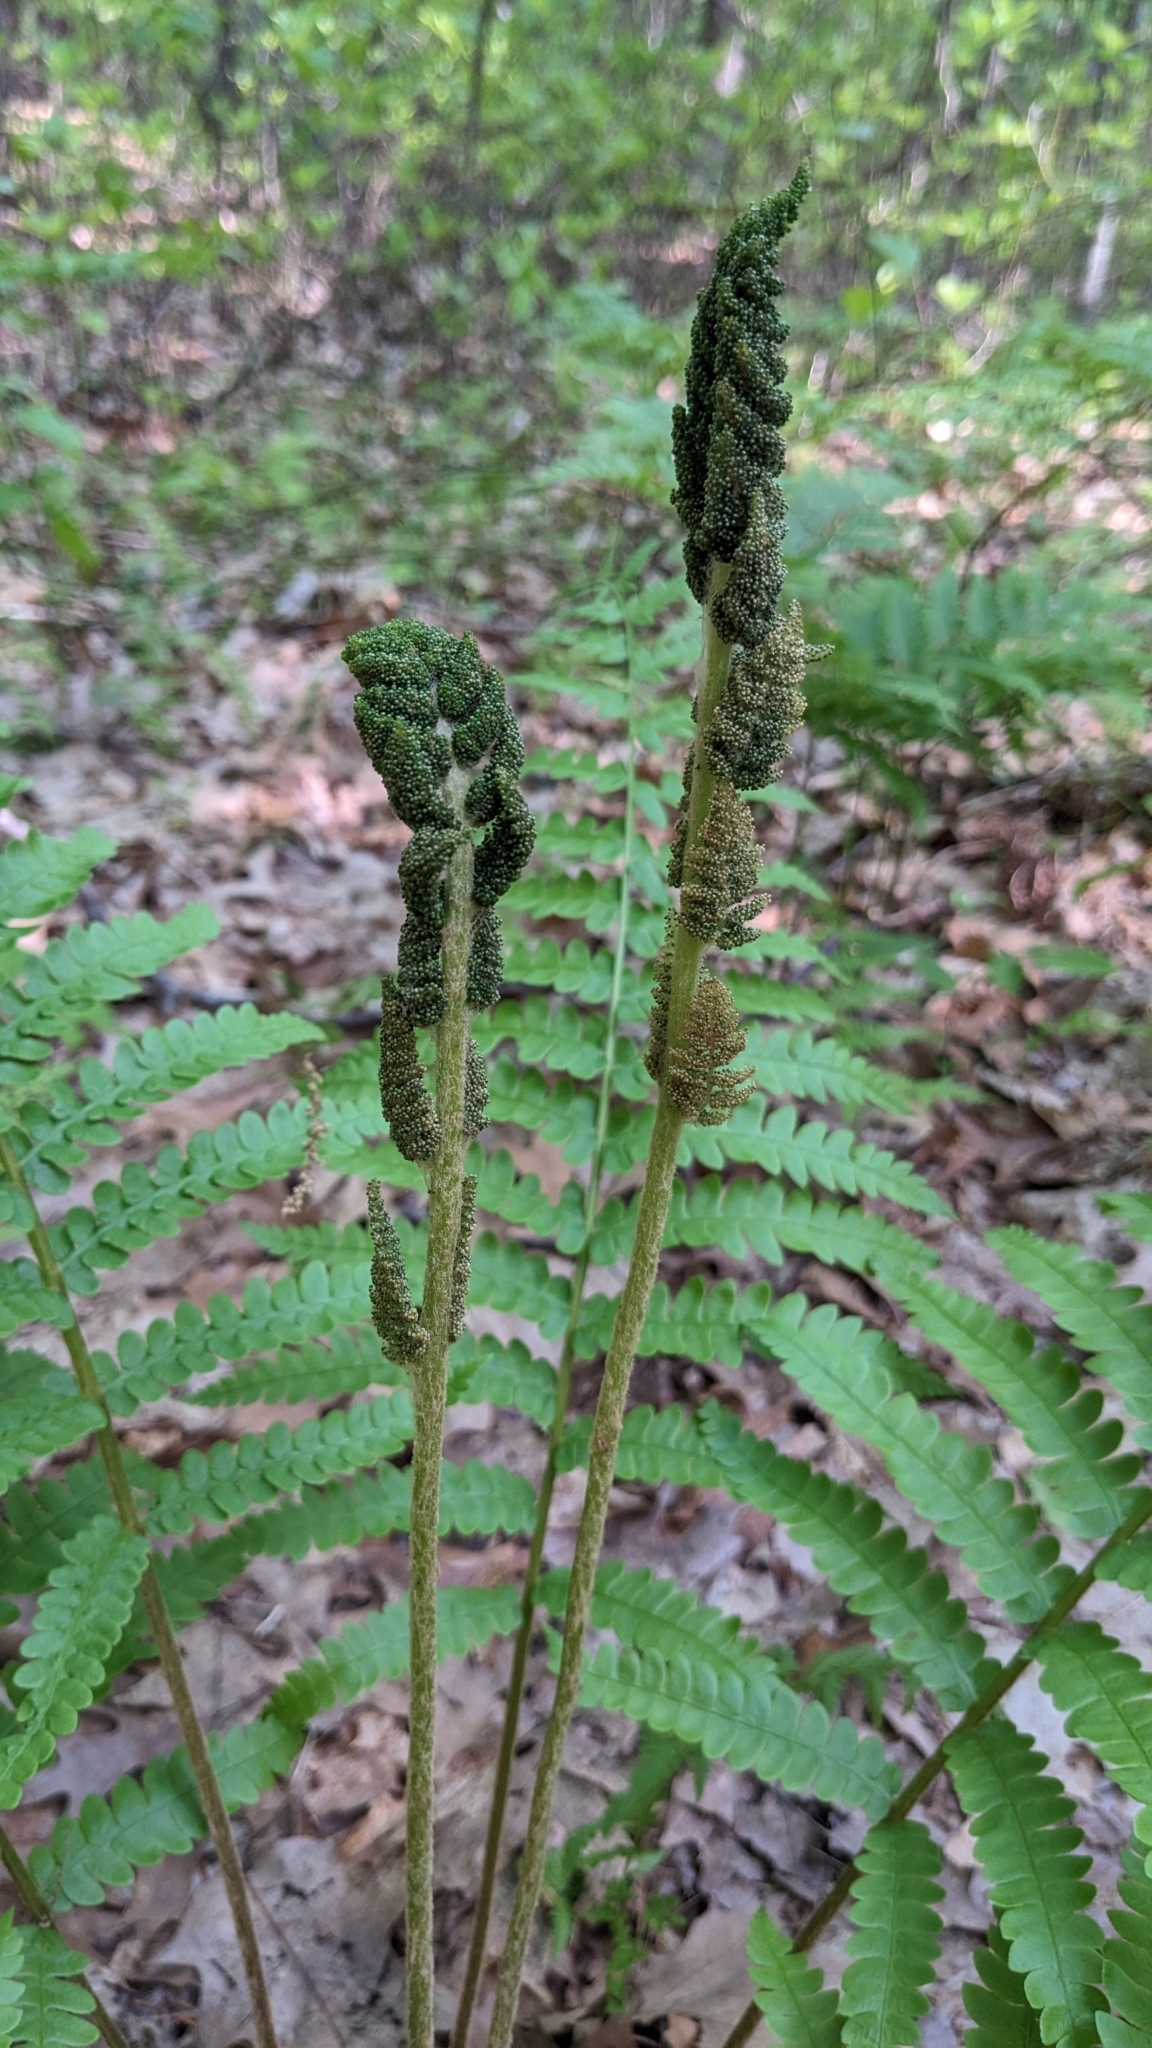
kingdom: Plantae
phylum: Tracheophyta
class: Polypodiopsida
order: Osmundales
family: Osmundaceae
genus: Claytosmunda
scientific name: Claytosmunda claytoniana
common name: Clayton's fern
